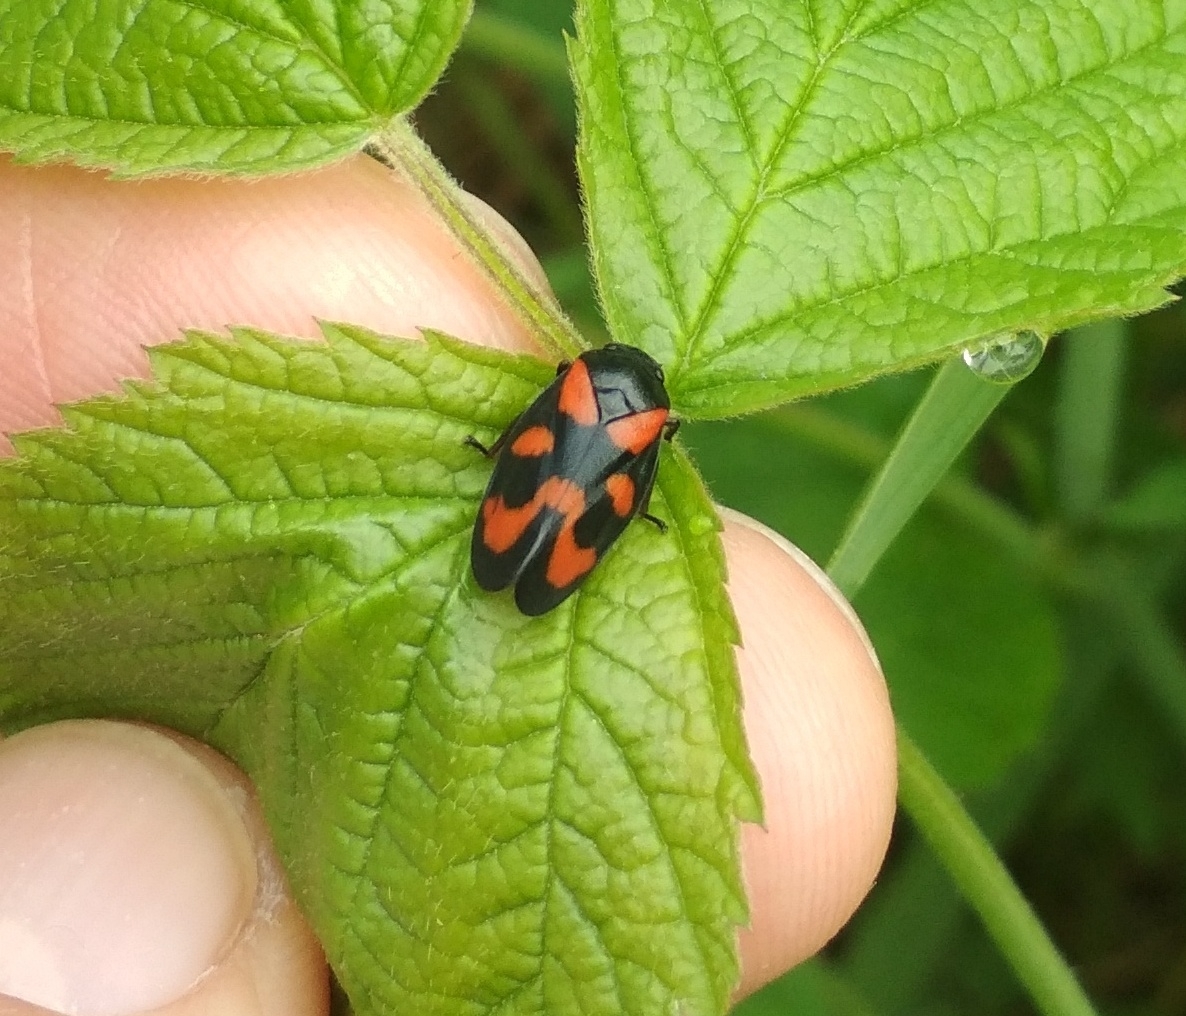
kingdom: Animalia
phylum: Arthropoda
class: Insecta
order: Hemiptera
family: Cercopidae
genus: Cercopis
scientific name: Cercopis vulnerata
